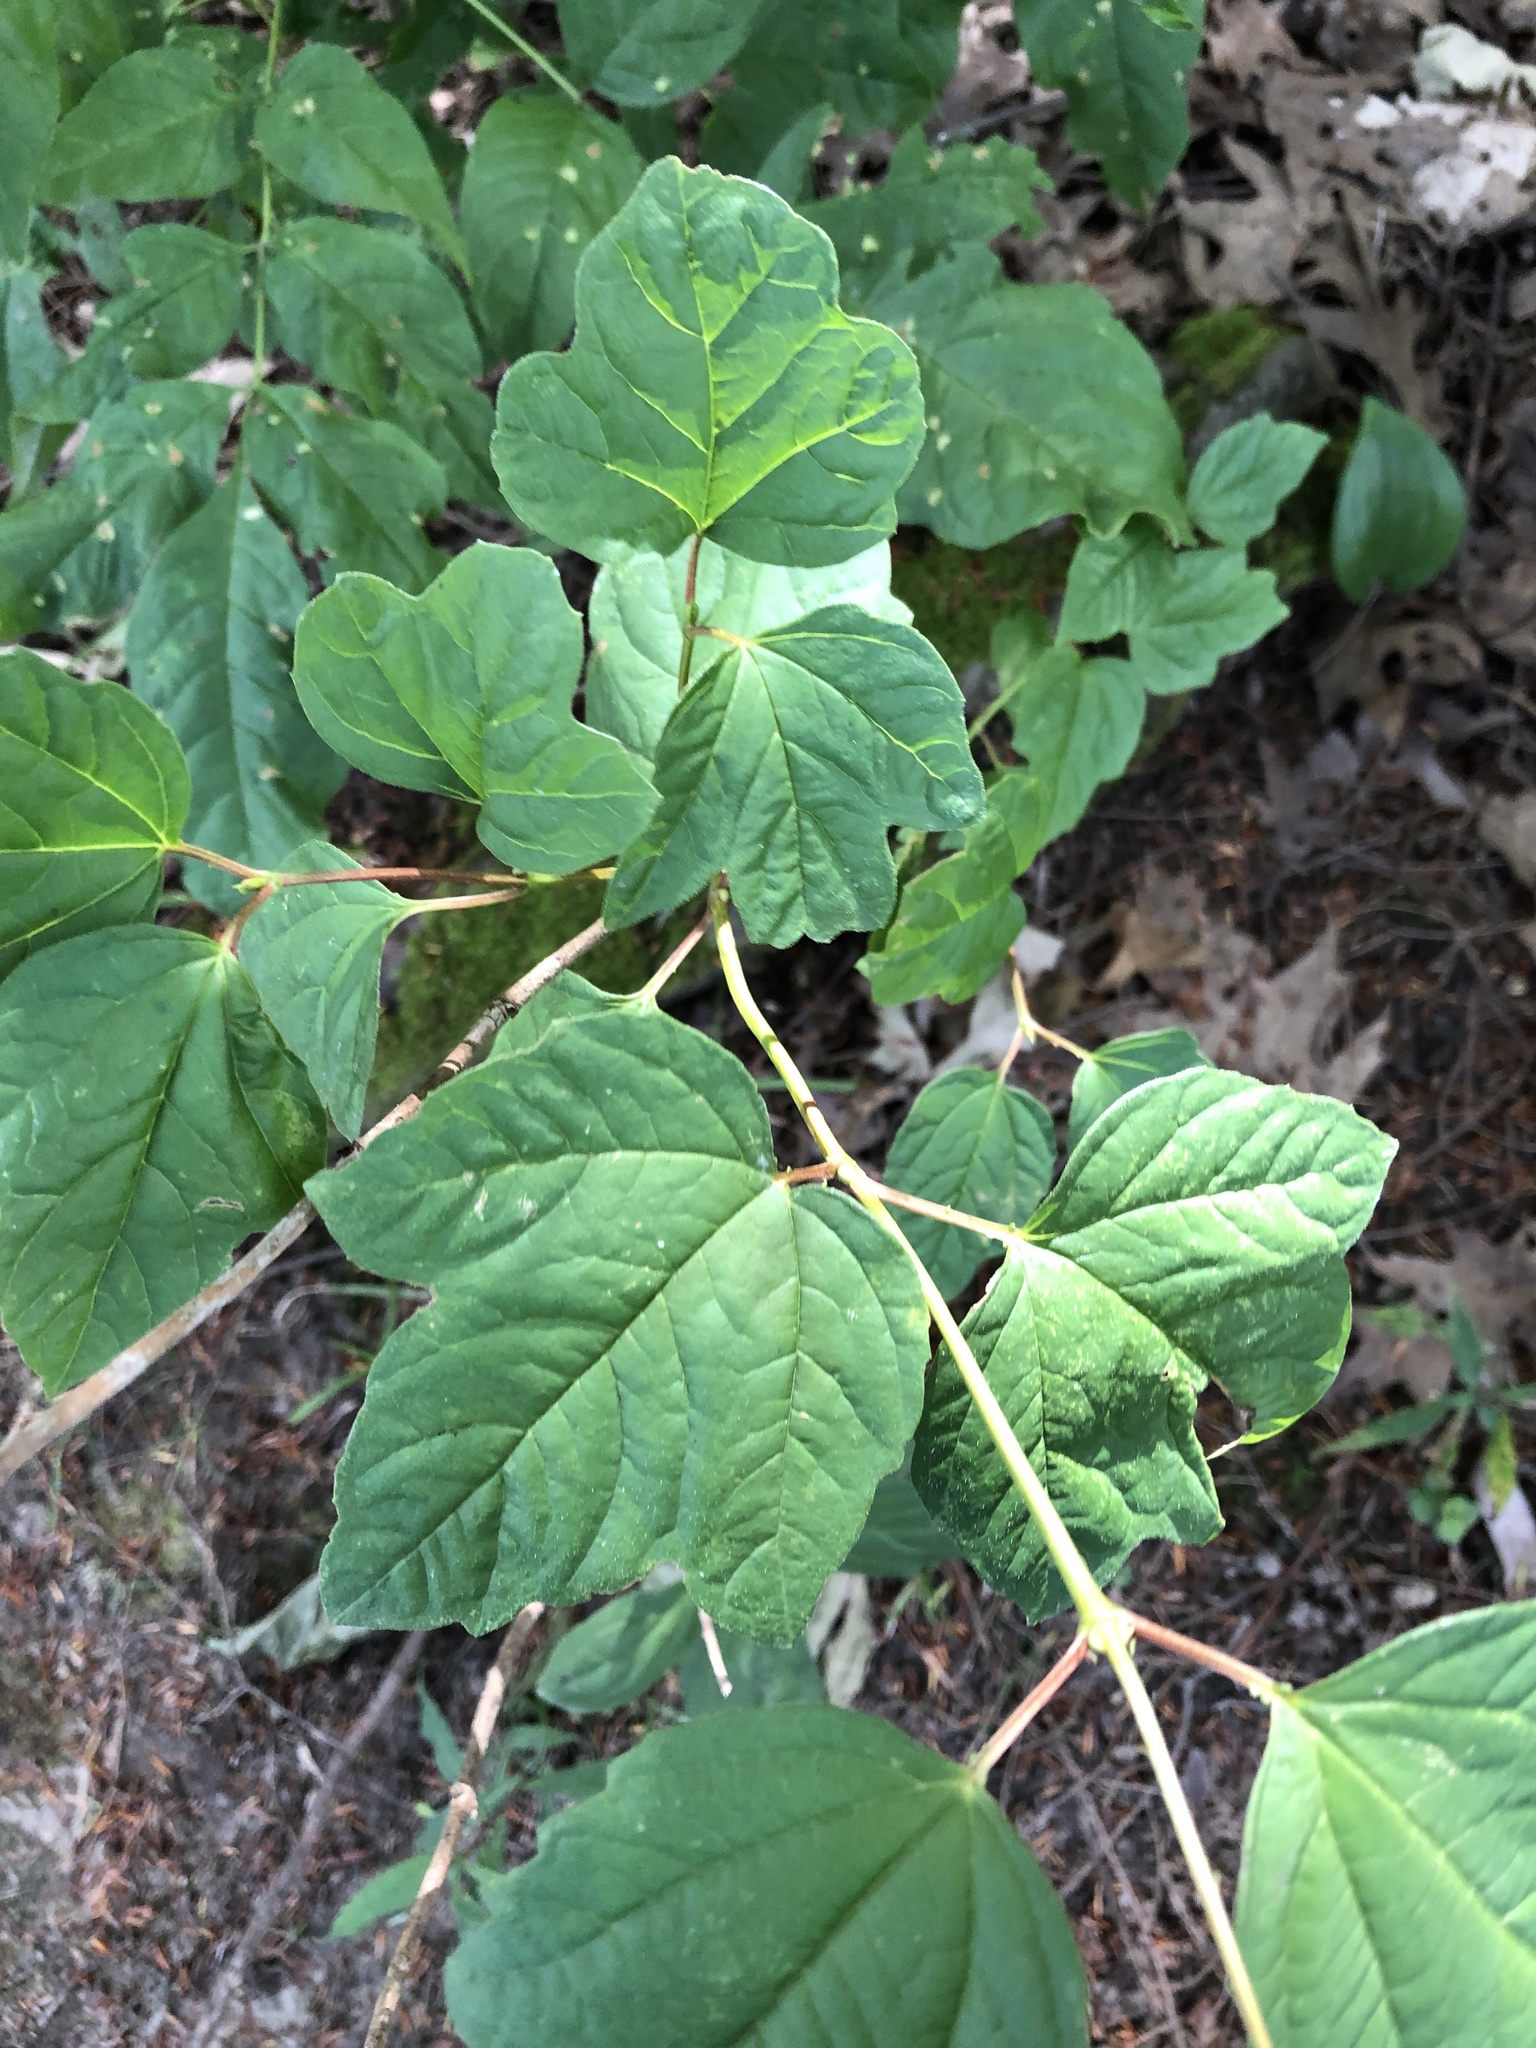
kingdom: Plantae
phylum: Tracheophyta
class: Magnoliopsida
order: Dipsacales
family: Viburnaceae
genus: Viburnum
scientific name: Viburnum opulus
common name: Guelder-rose
